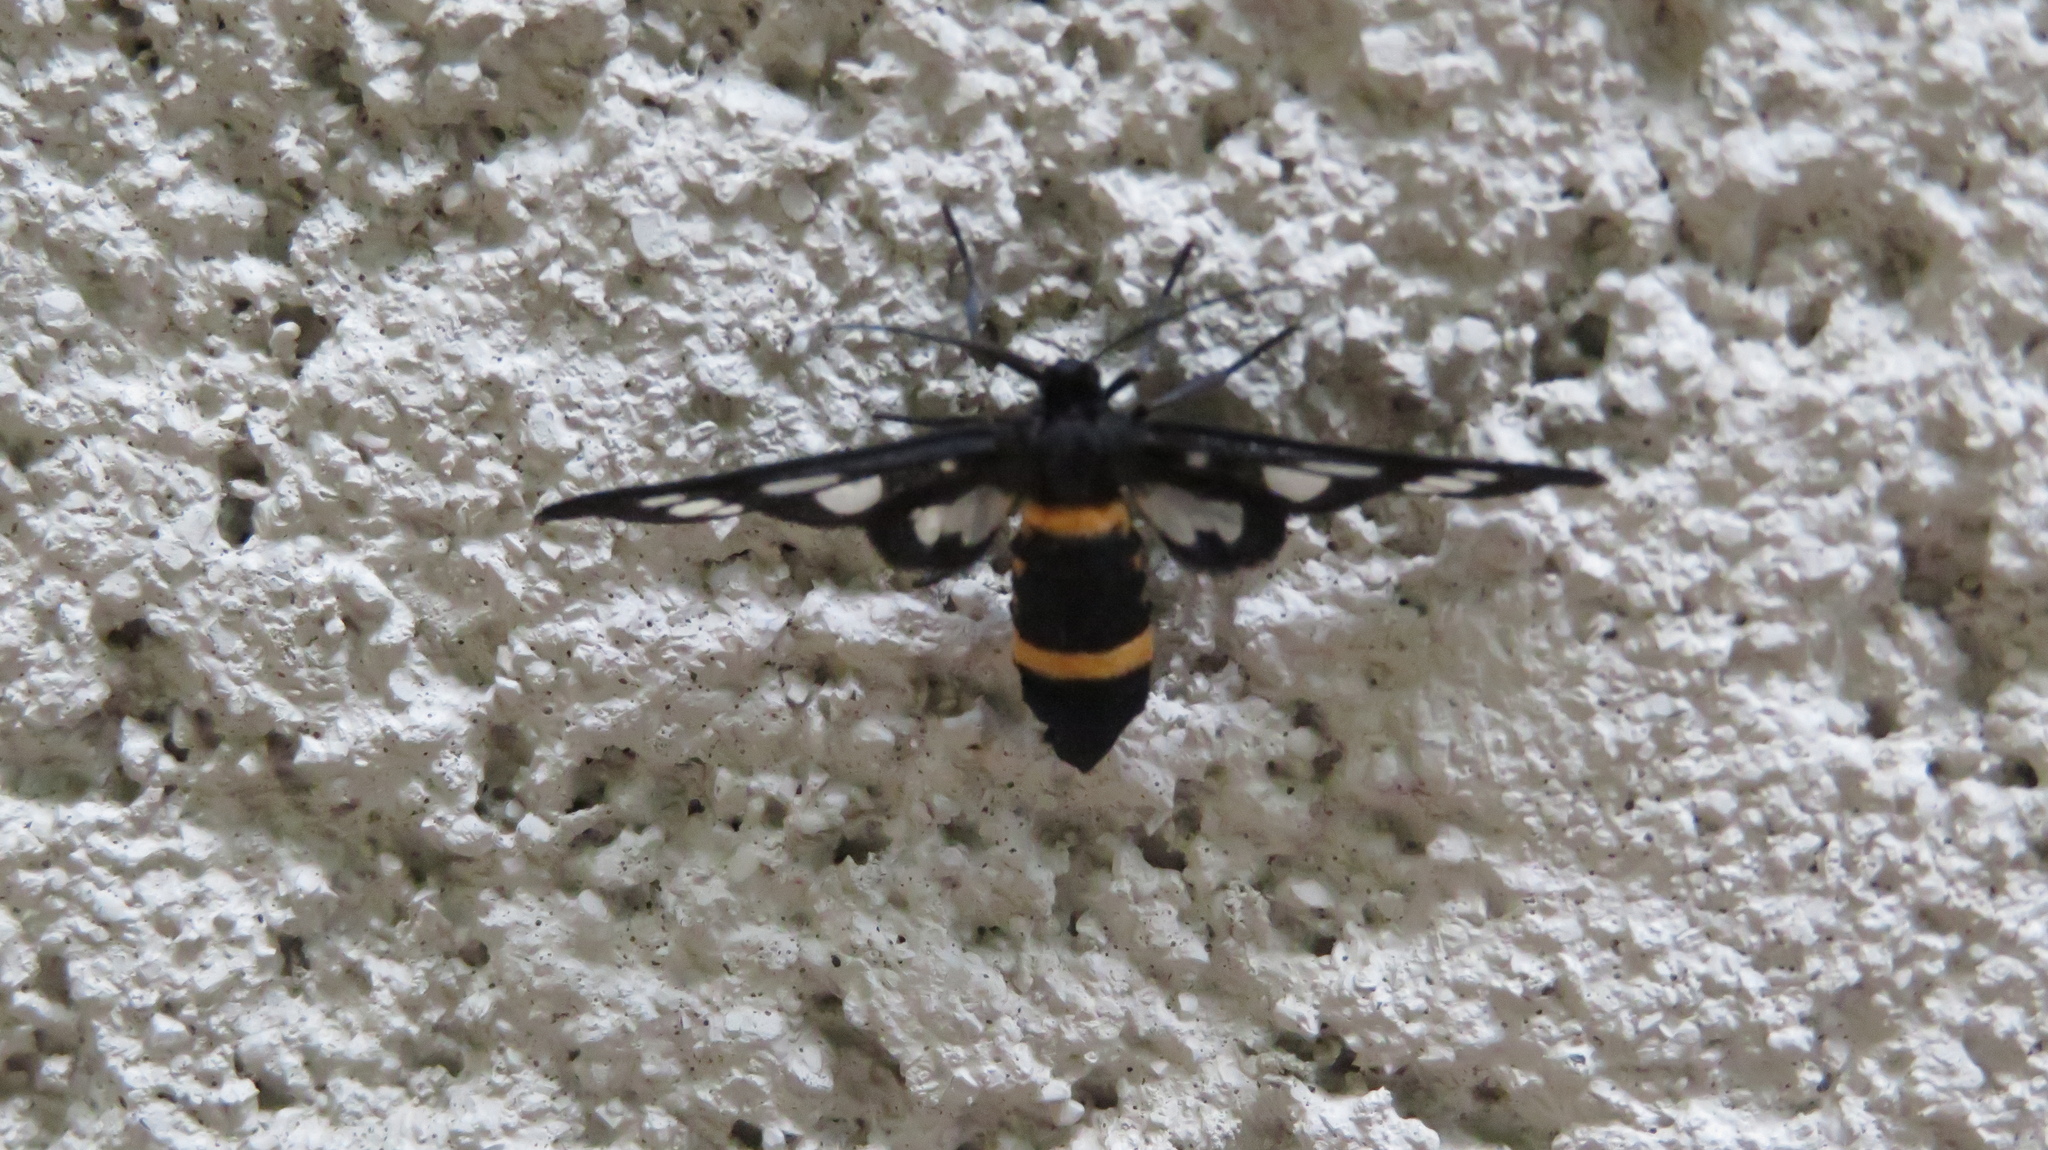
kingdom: Animalia
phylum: Arthropoda
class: Insecta
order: Lepidoptera
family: Erebidae
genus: Amata
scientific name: Amata fortunei
